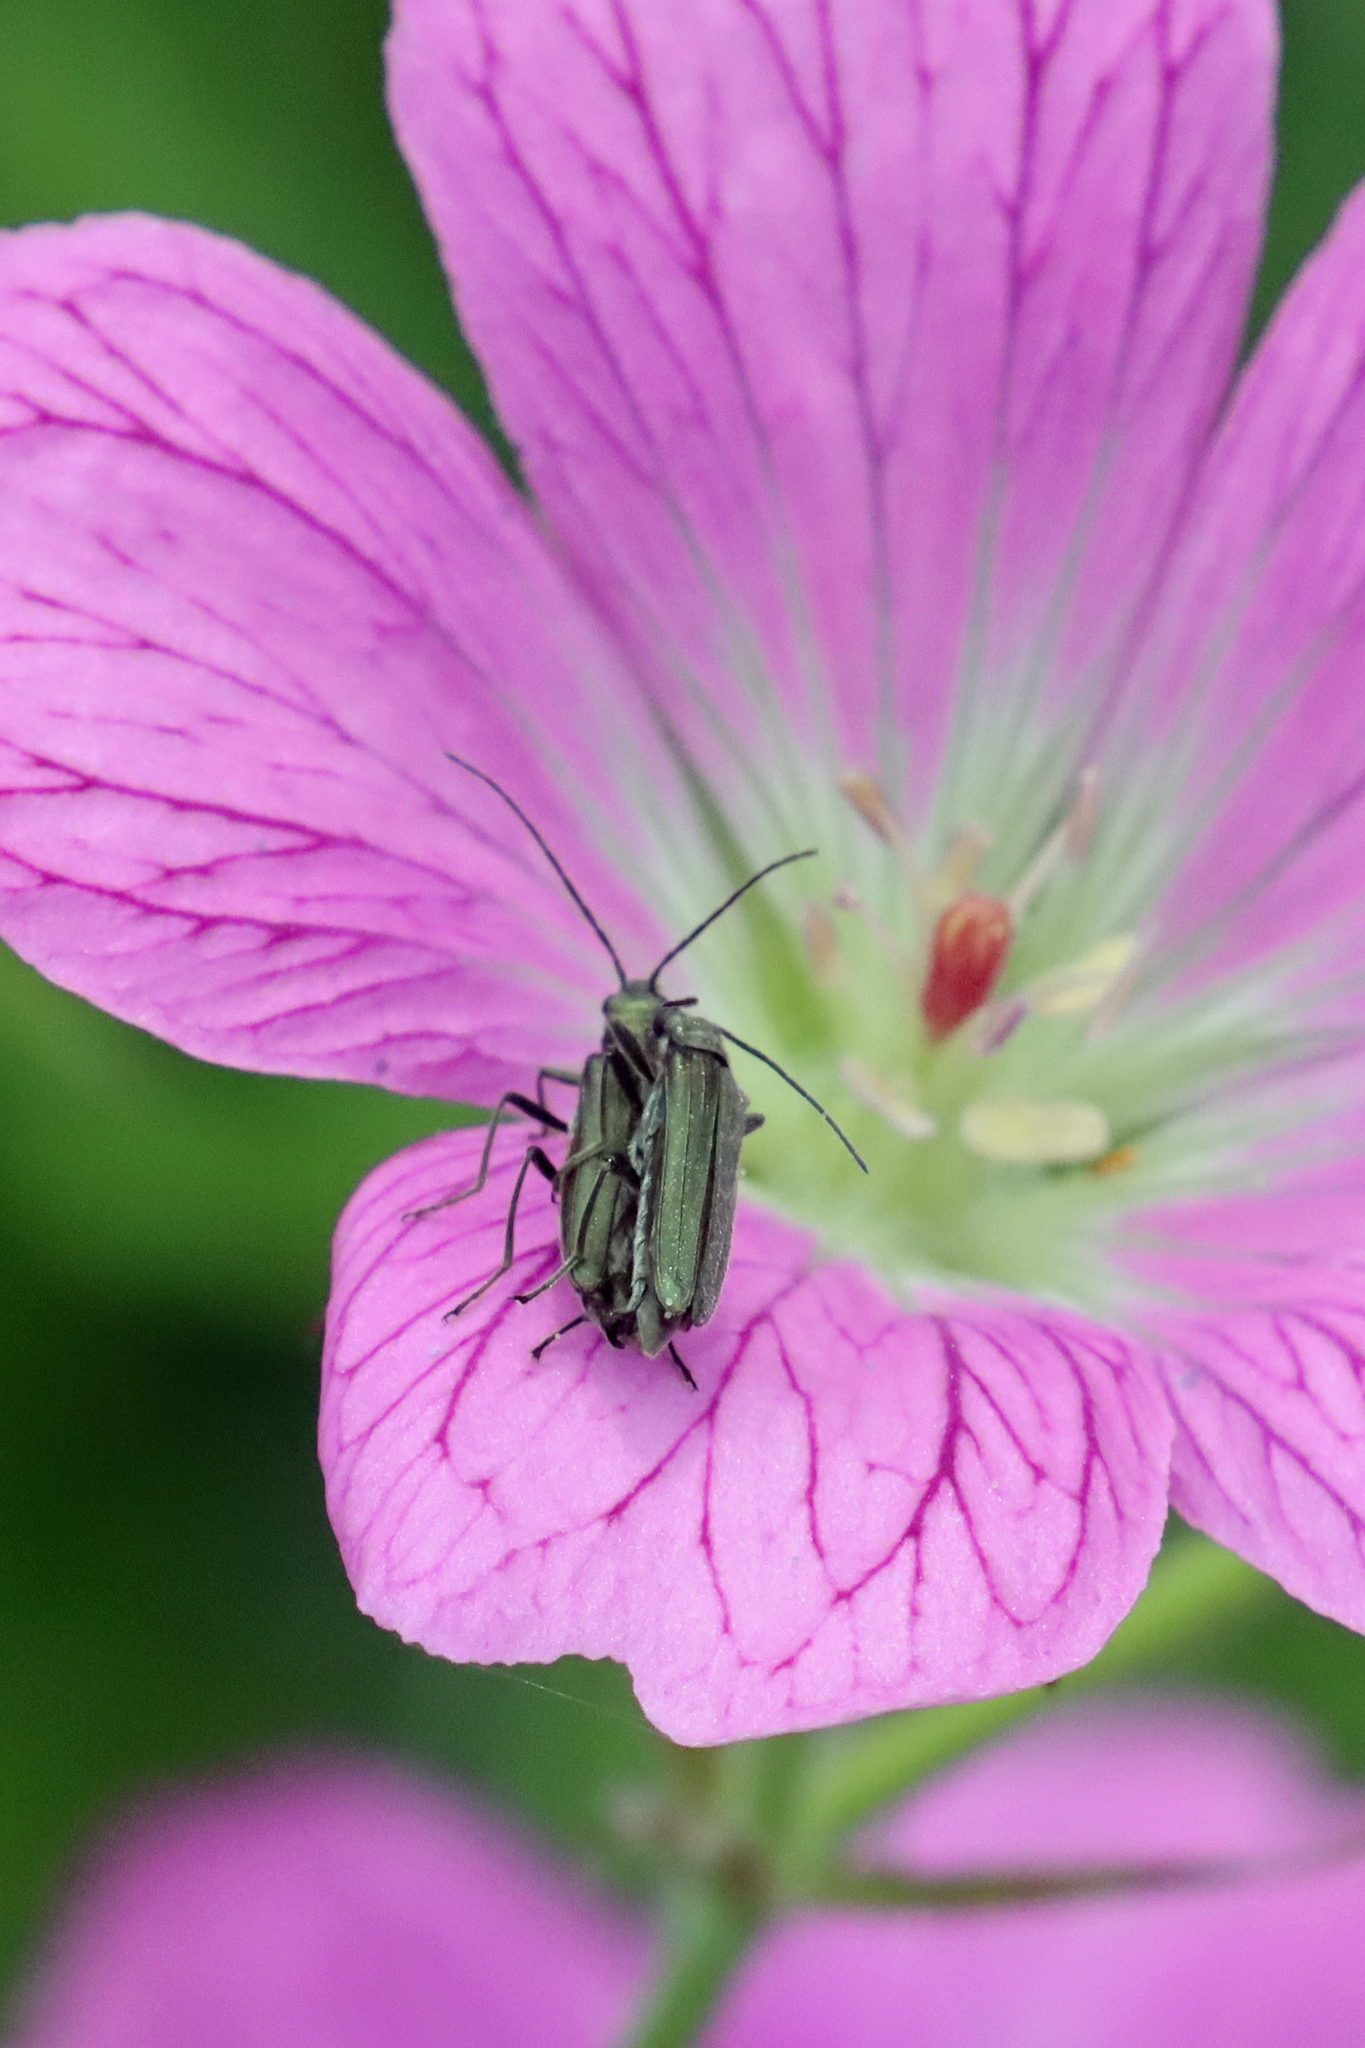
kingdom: Animalia
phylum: Arthropoda
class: Insecta
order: Coleoptera
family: Oedemeridae
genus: Oedemera
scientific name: Oedemera lurida
